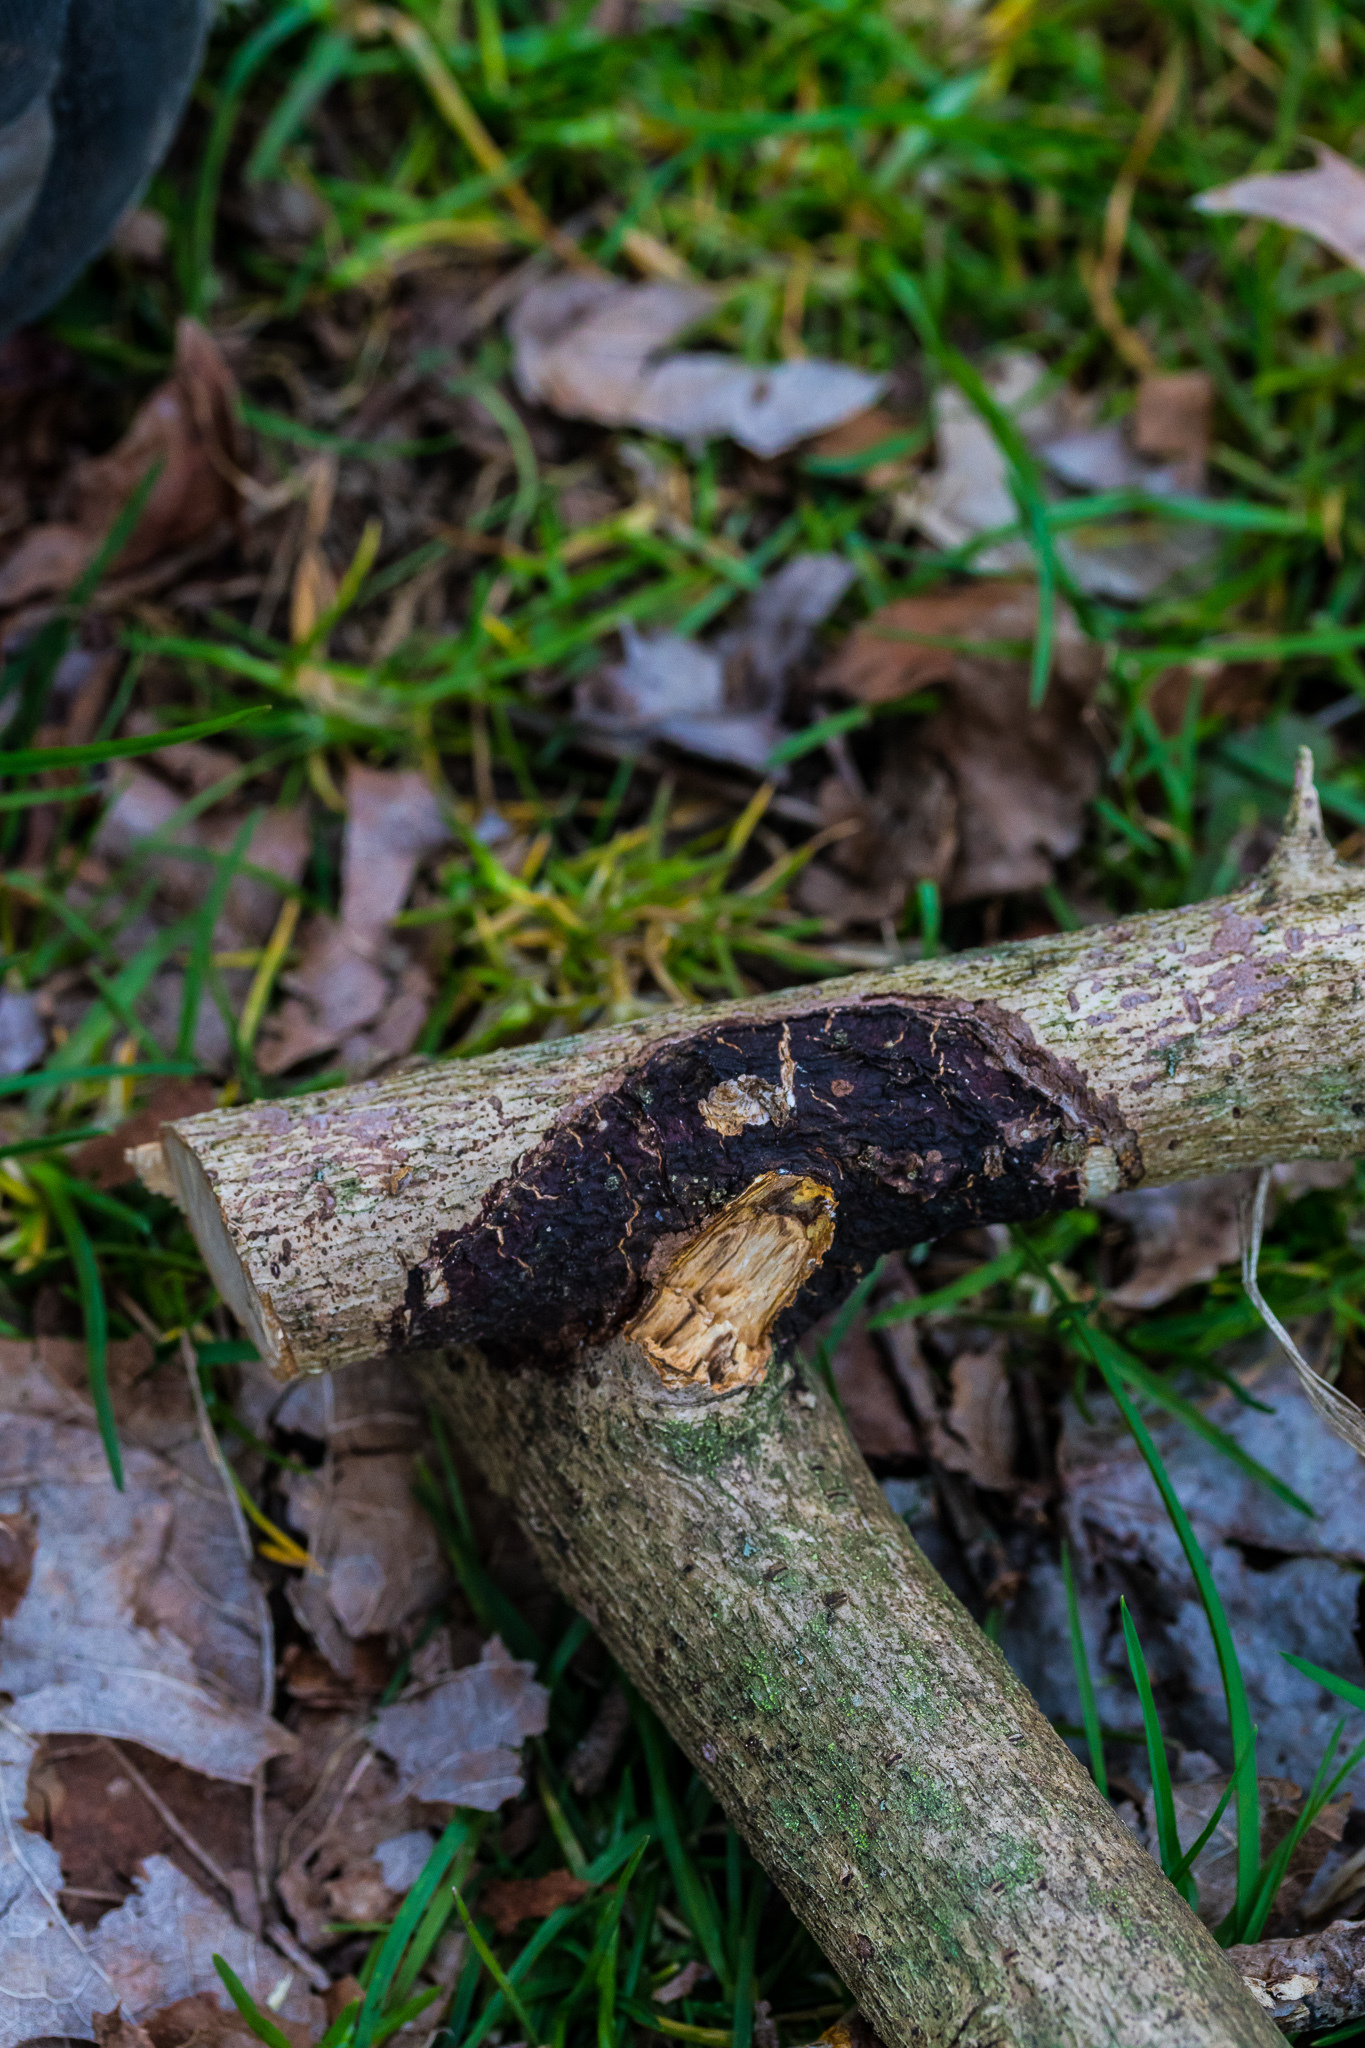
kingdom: Fungi
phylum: Basidiomycota
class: Agaricomycetes
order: Hymenochaetales
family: Hymenochaetaceae
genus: Hydnoporia
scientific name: Hydnoporia diffissa
